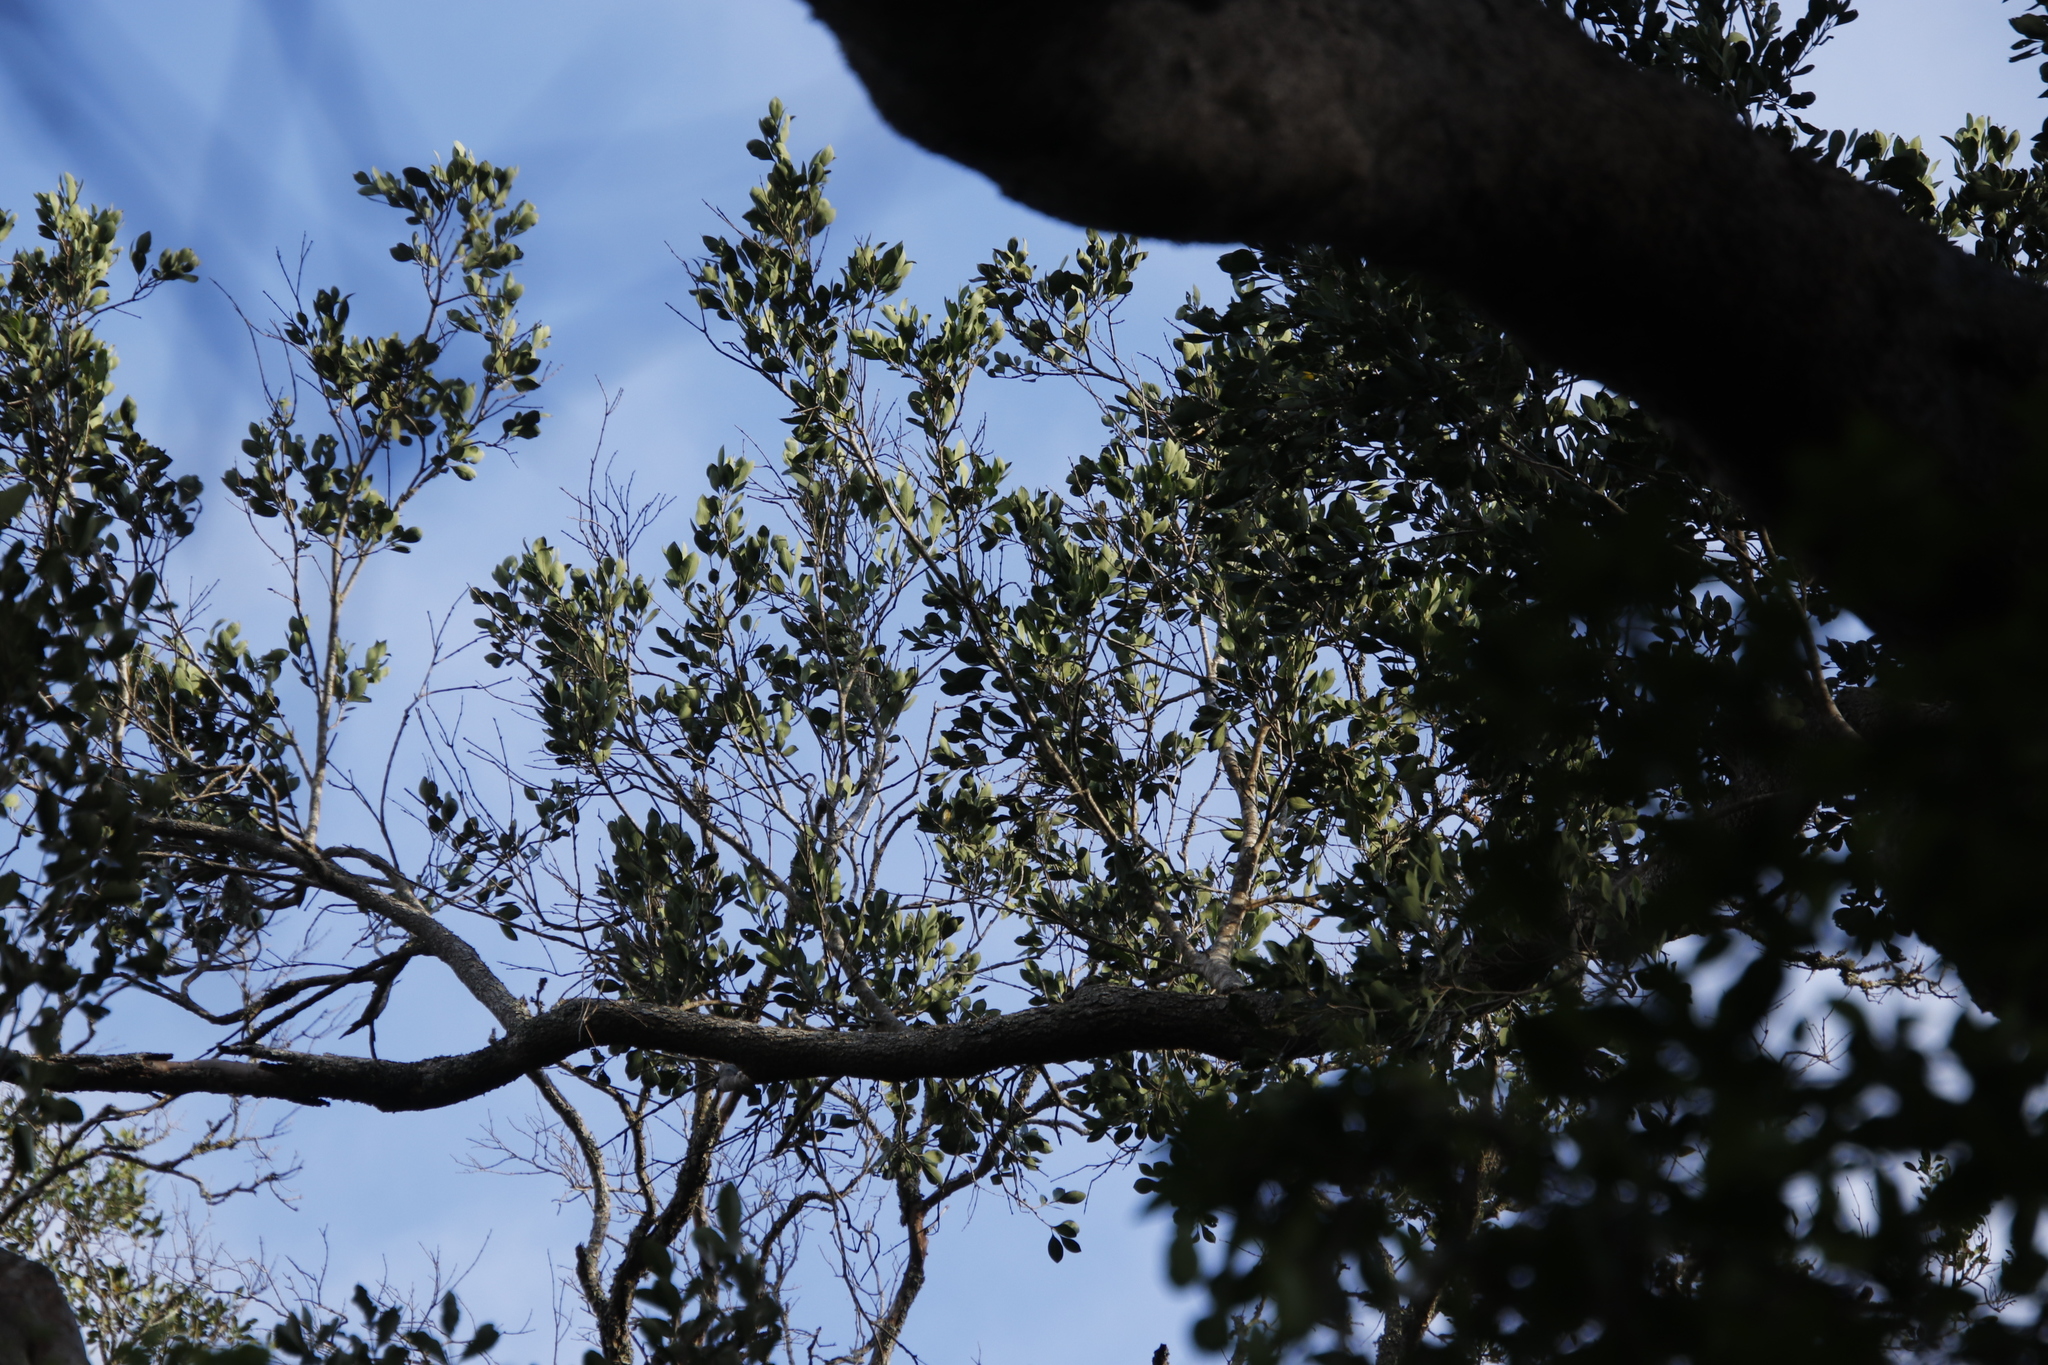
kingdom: Plantae
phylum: Tracheophyta
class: Magnoliopsida
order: Myrtales
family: Penaeaceae
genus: Olinia
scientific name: Olinia ventosa
